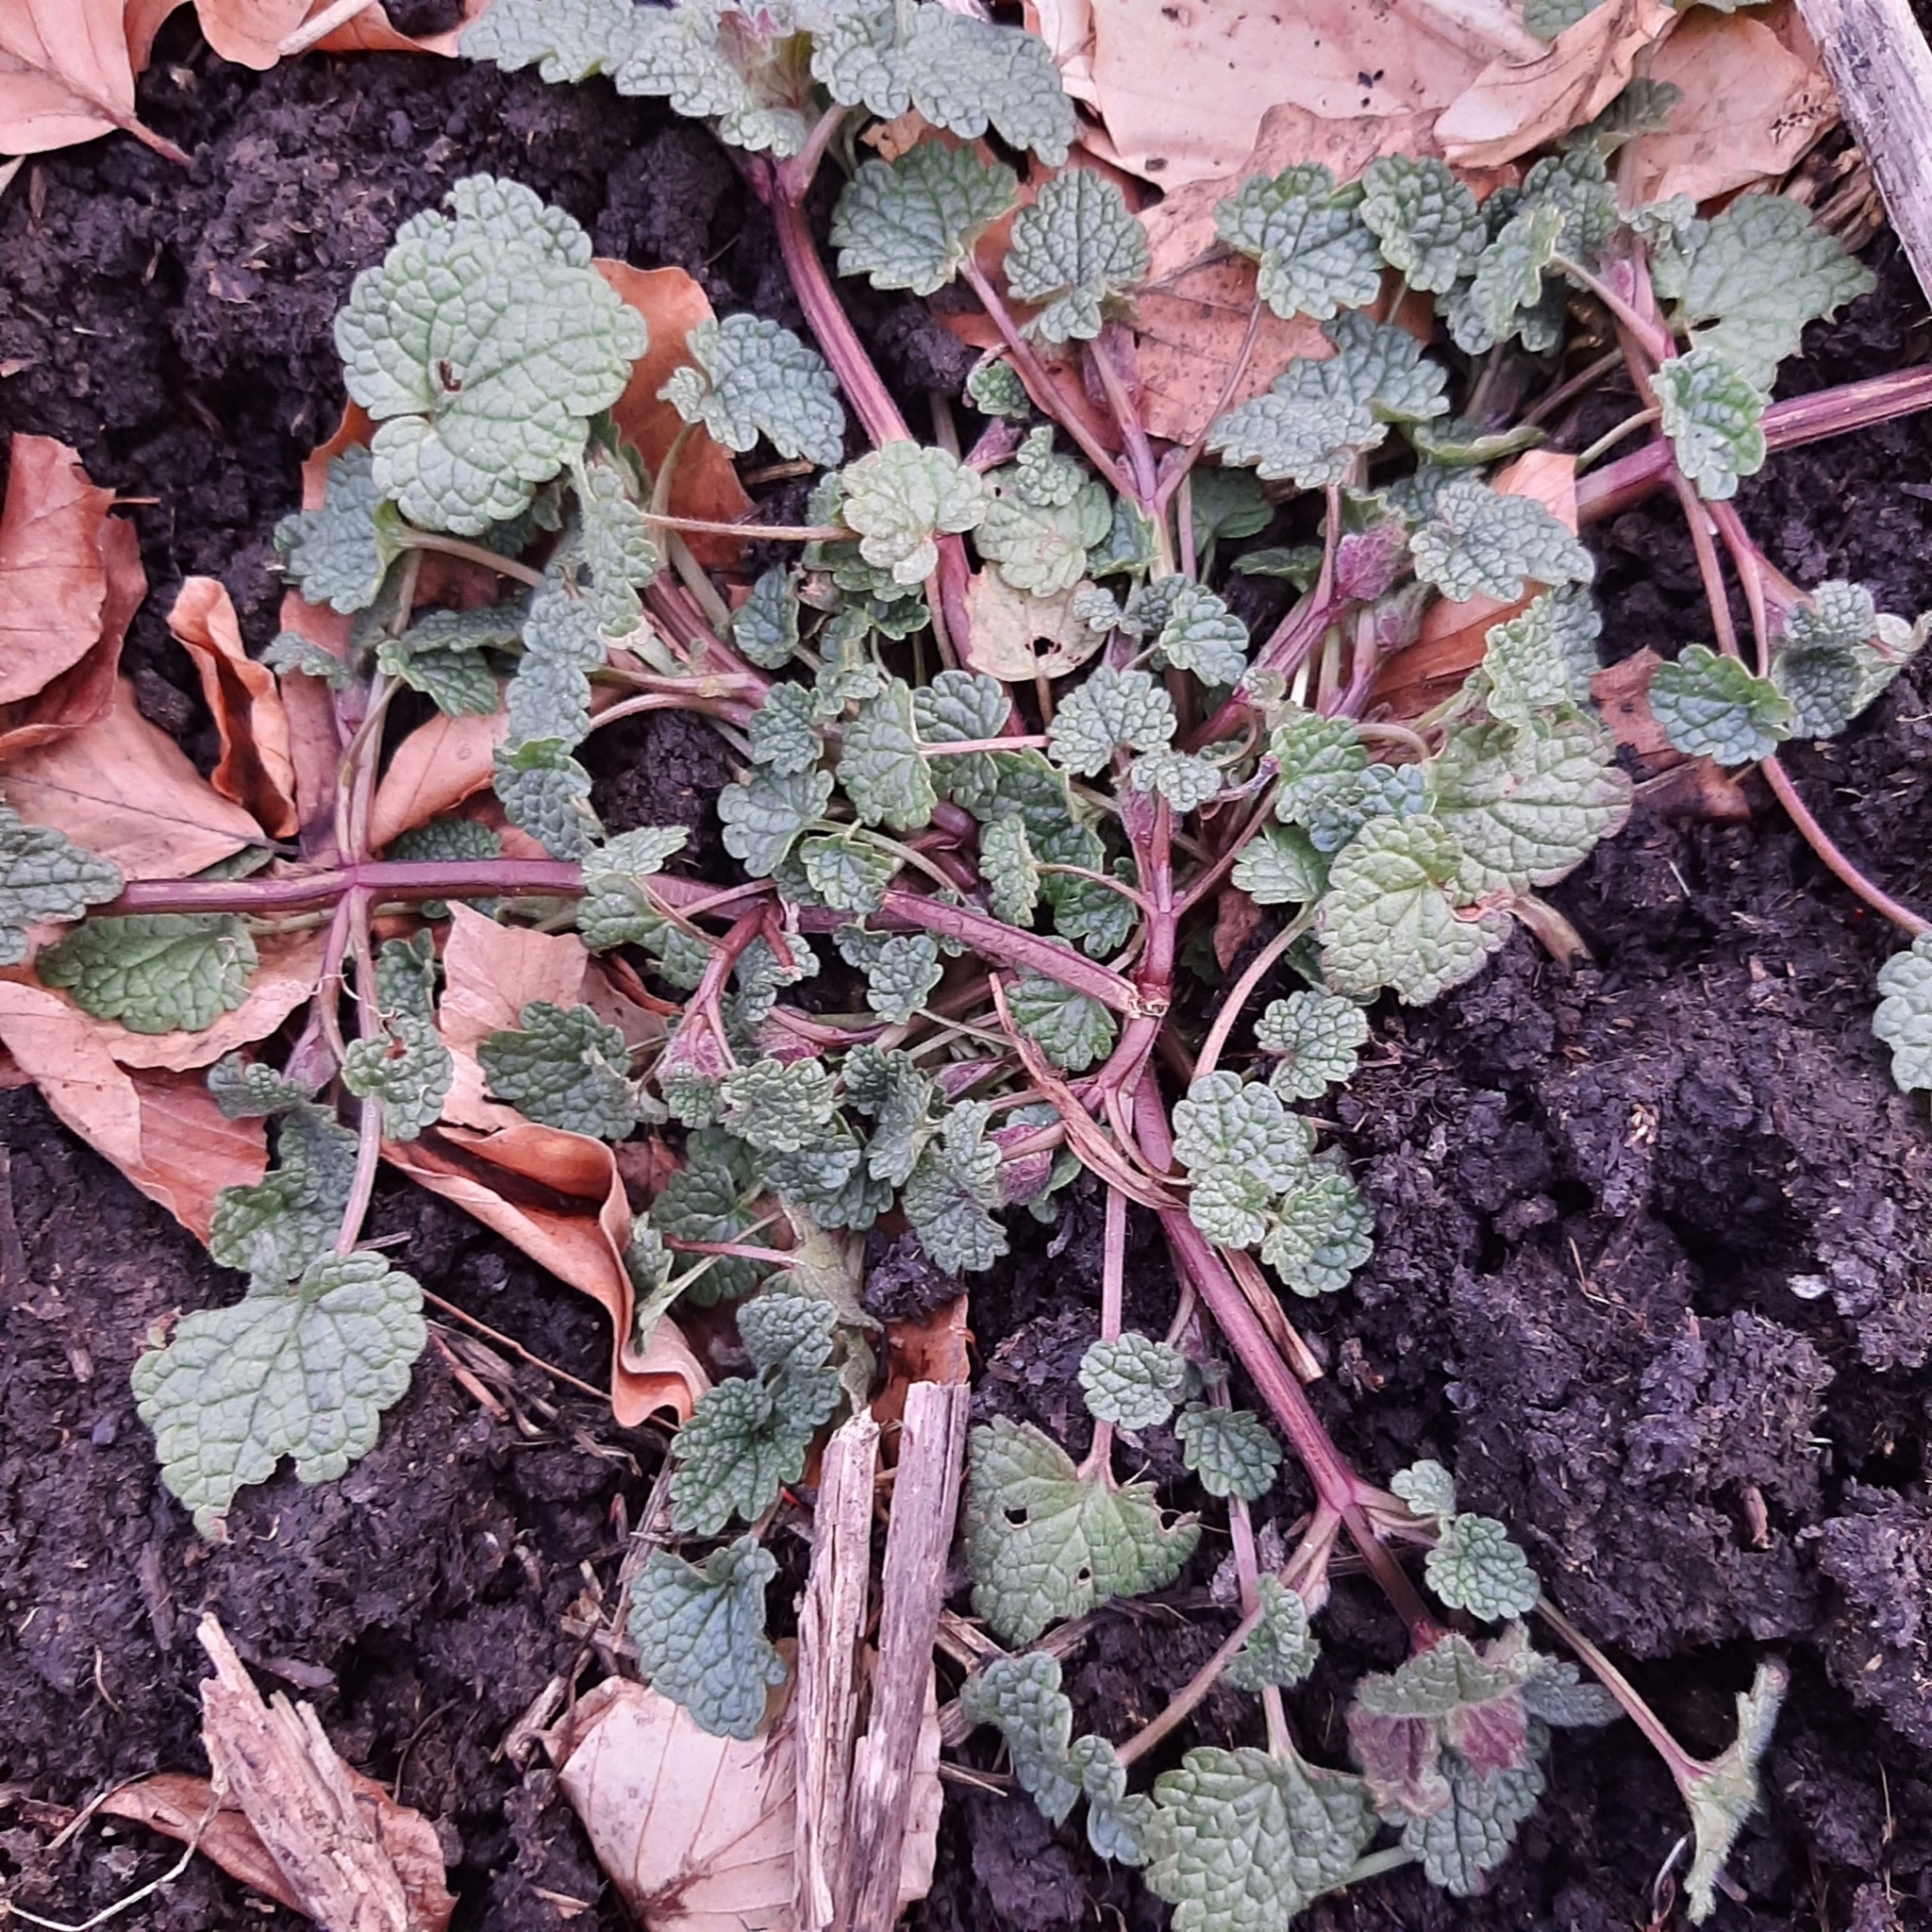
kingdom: Plantae
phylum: Tracheophyta
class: Magnoliopsida
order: Lamiales
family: Lamiaceae
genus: Lamium
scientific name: Lamium purpureum
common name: Red dead-nettle
